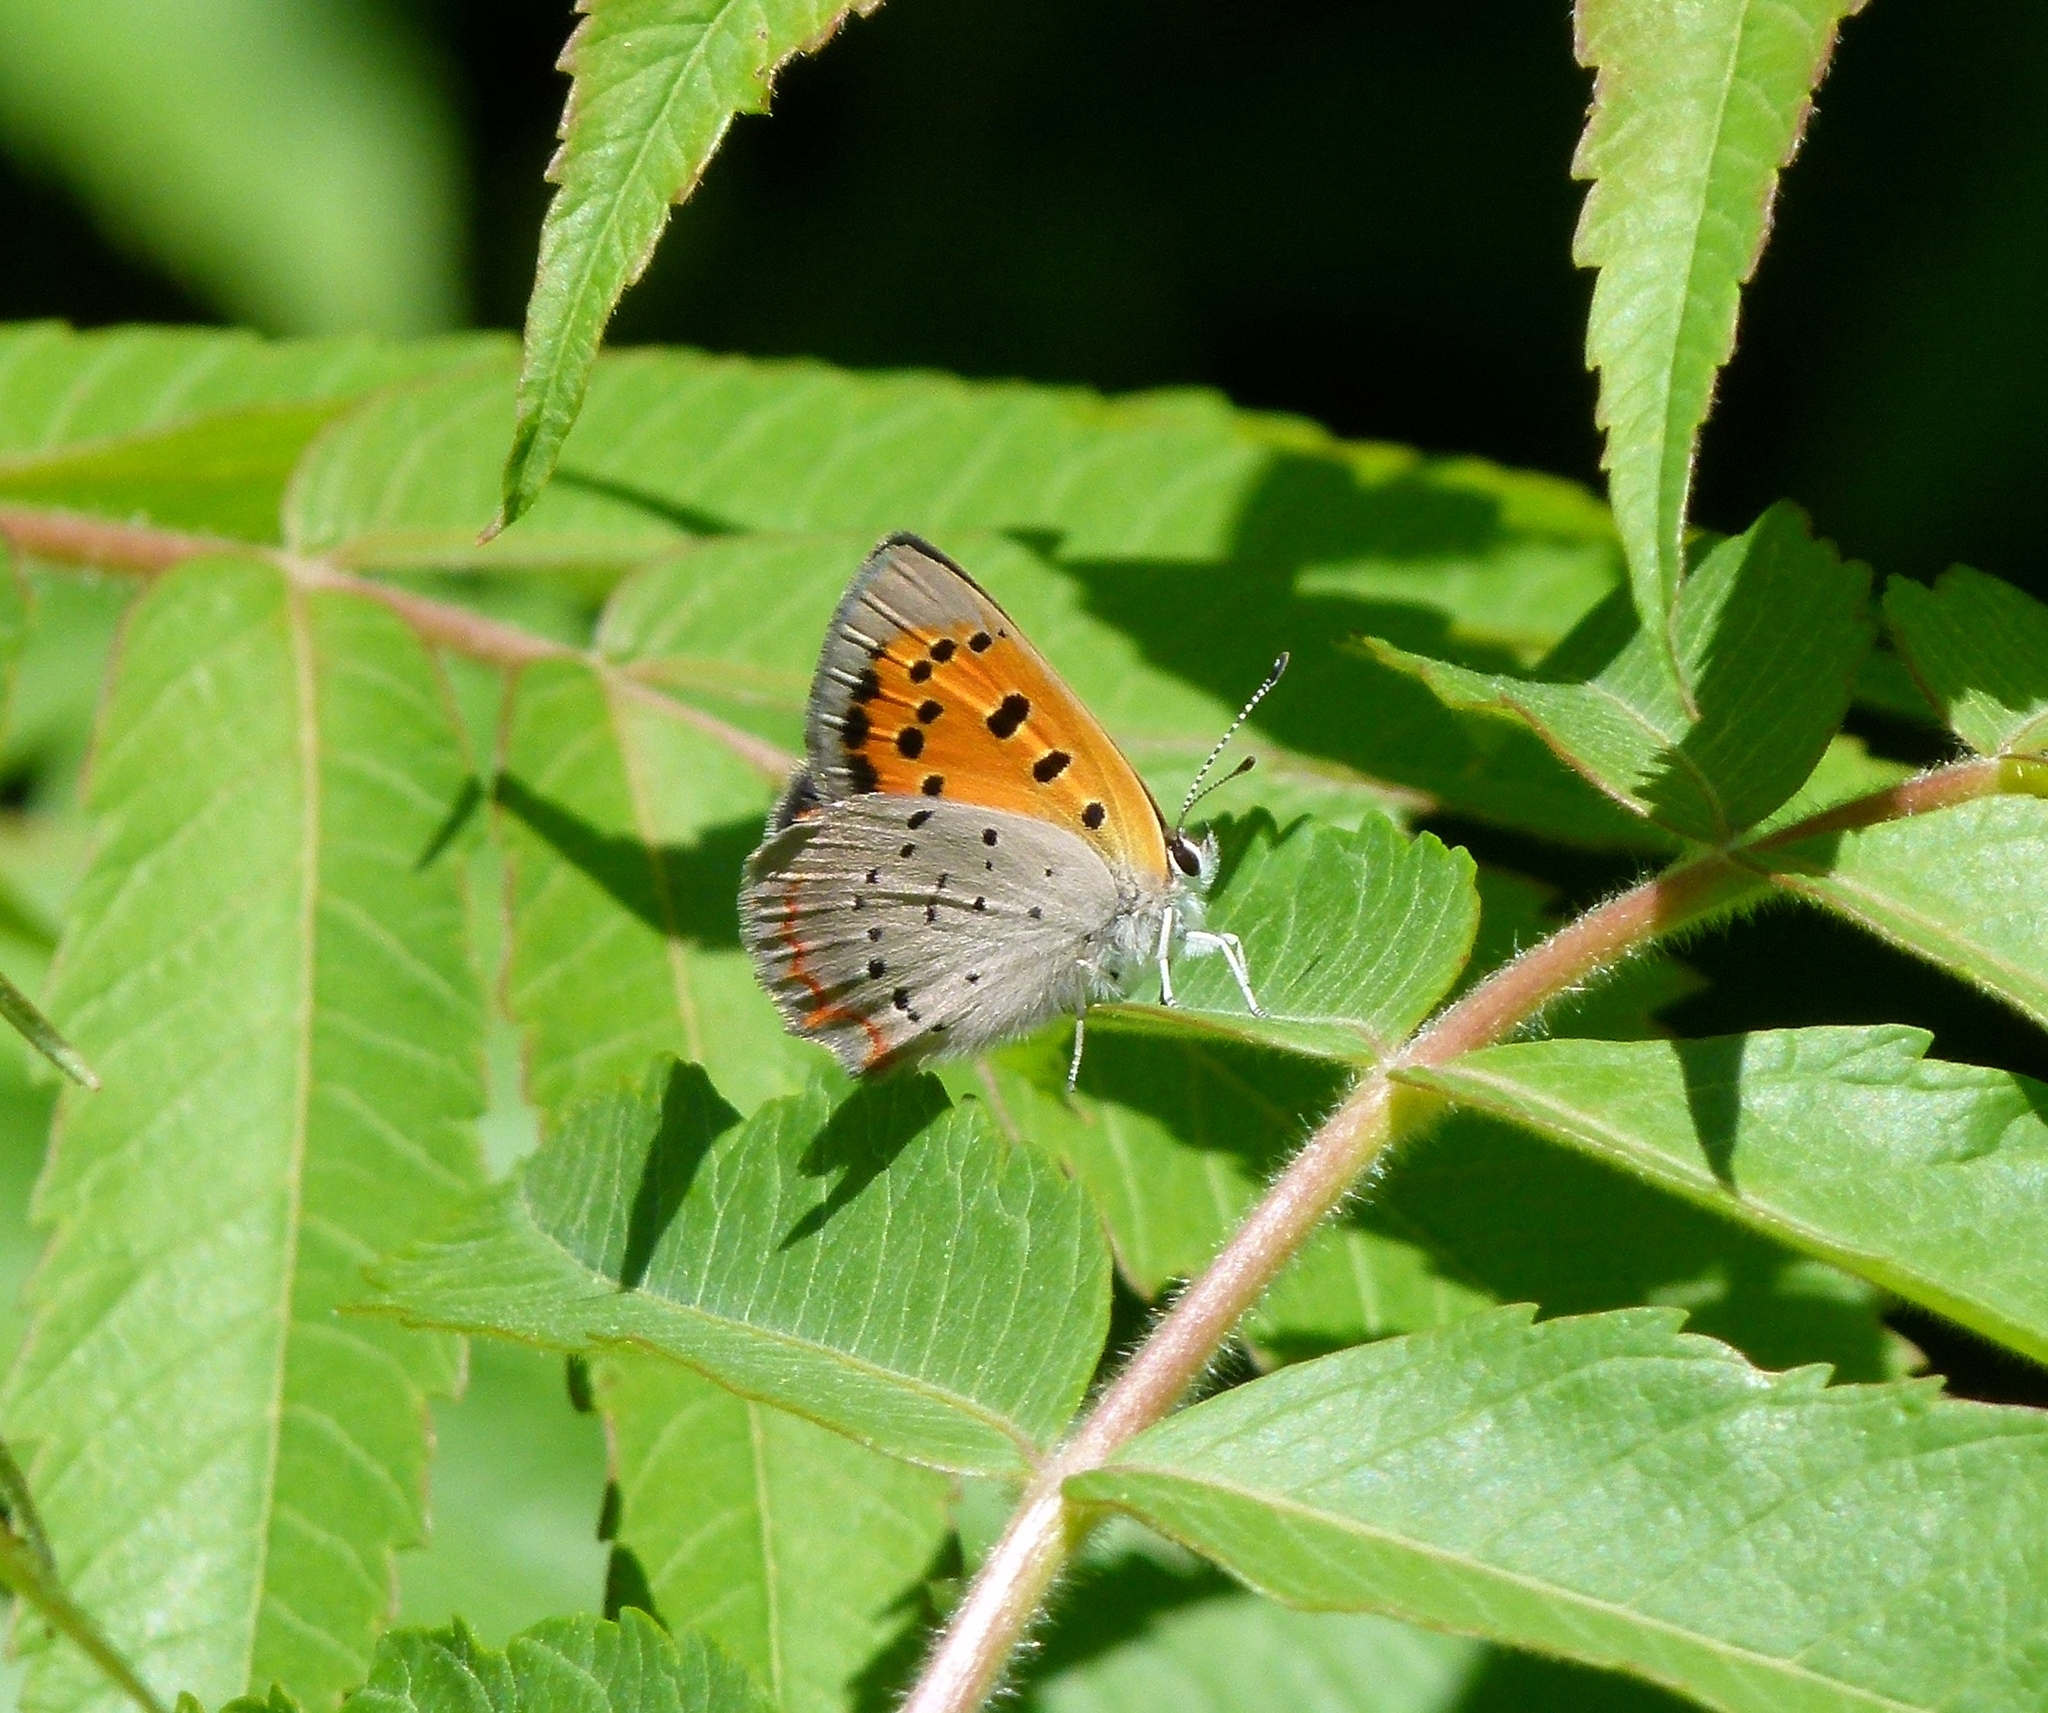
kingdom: Animalia
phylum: Arthropoda
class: Insecta
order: Lepidoptera
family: Lycaenidae
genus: Lycaena
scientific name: Lycaena hypophlaeas
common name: American copper
